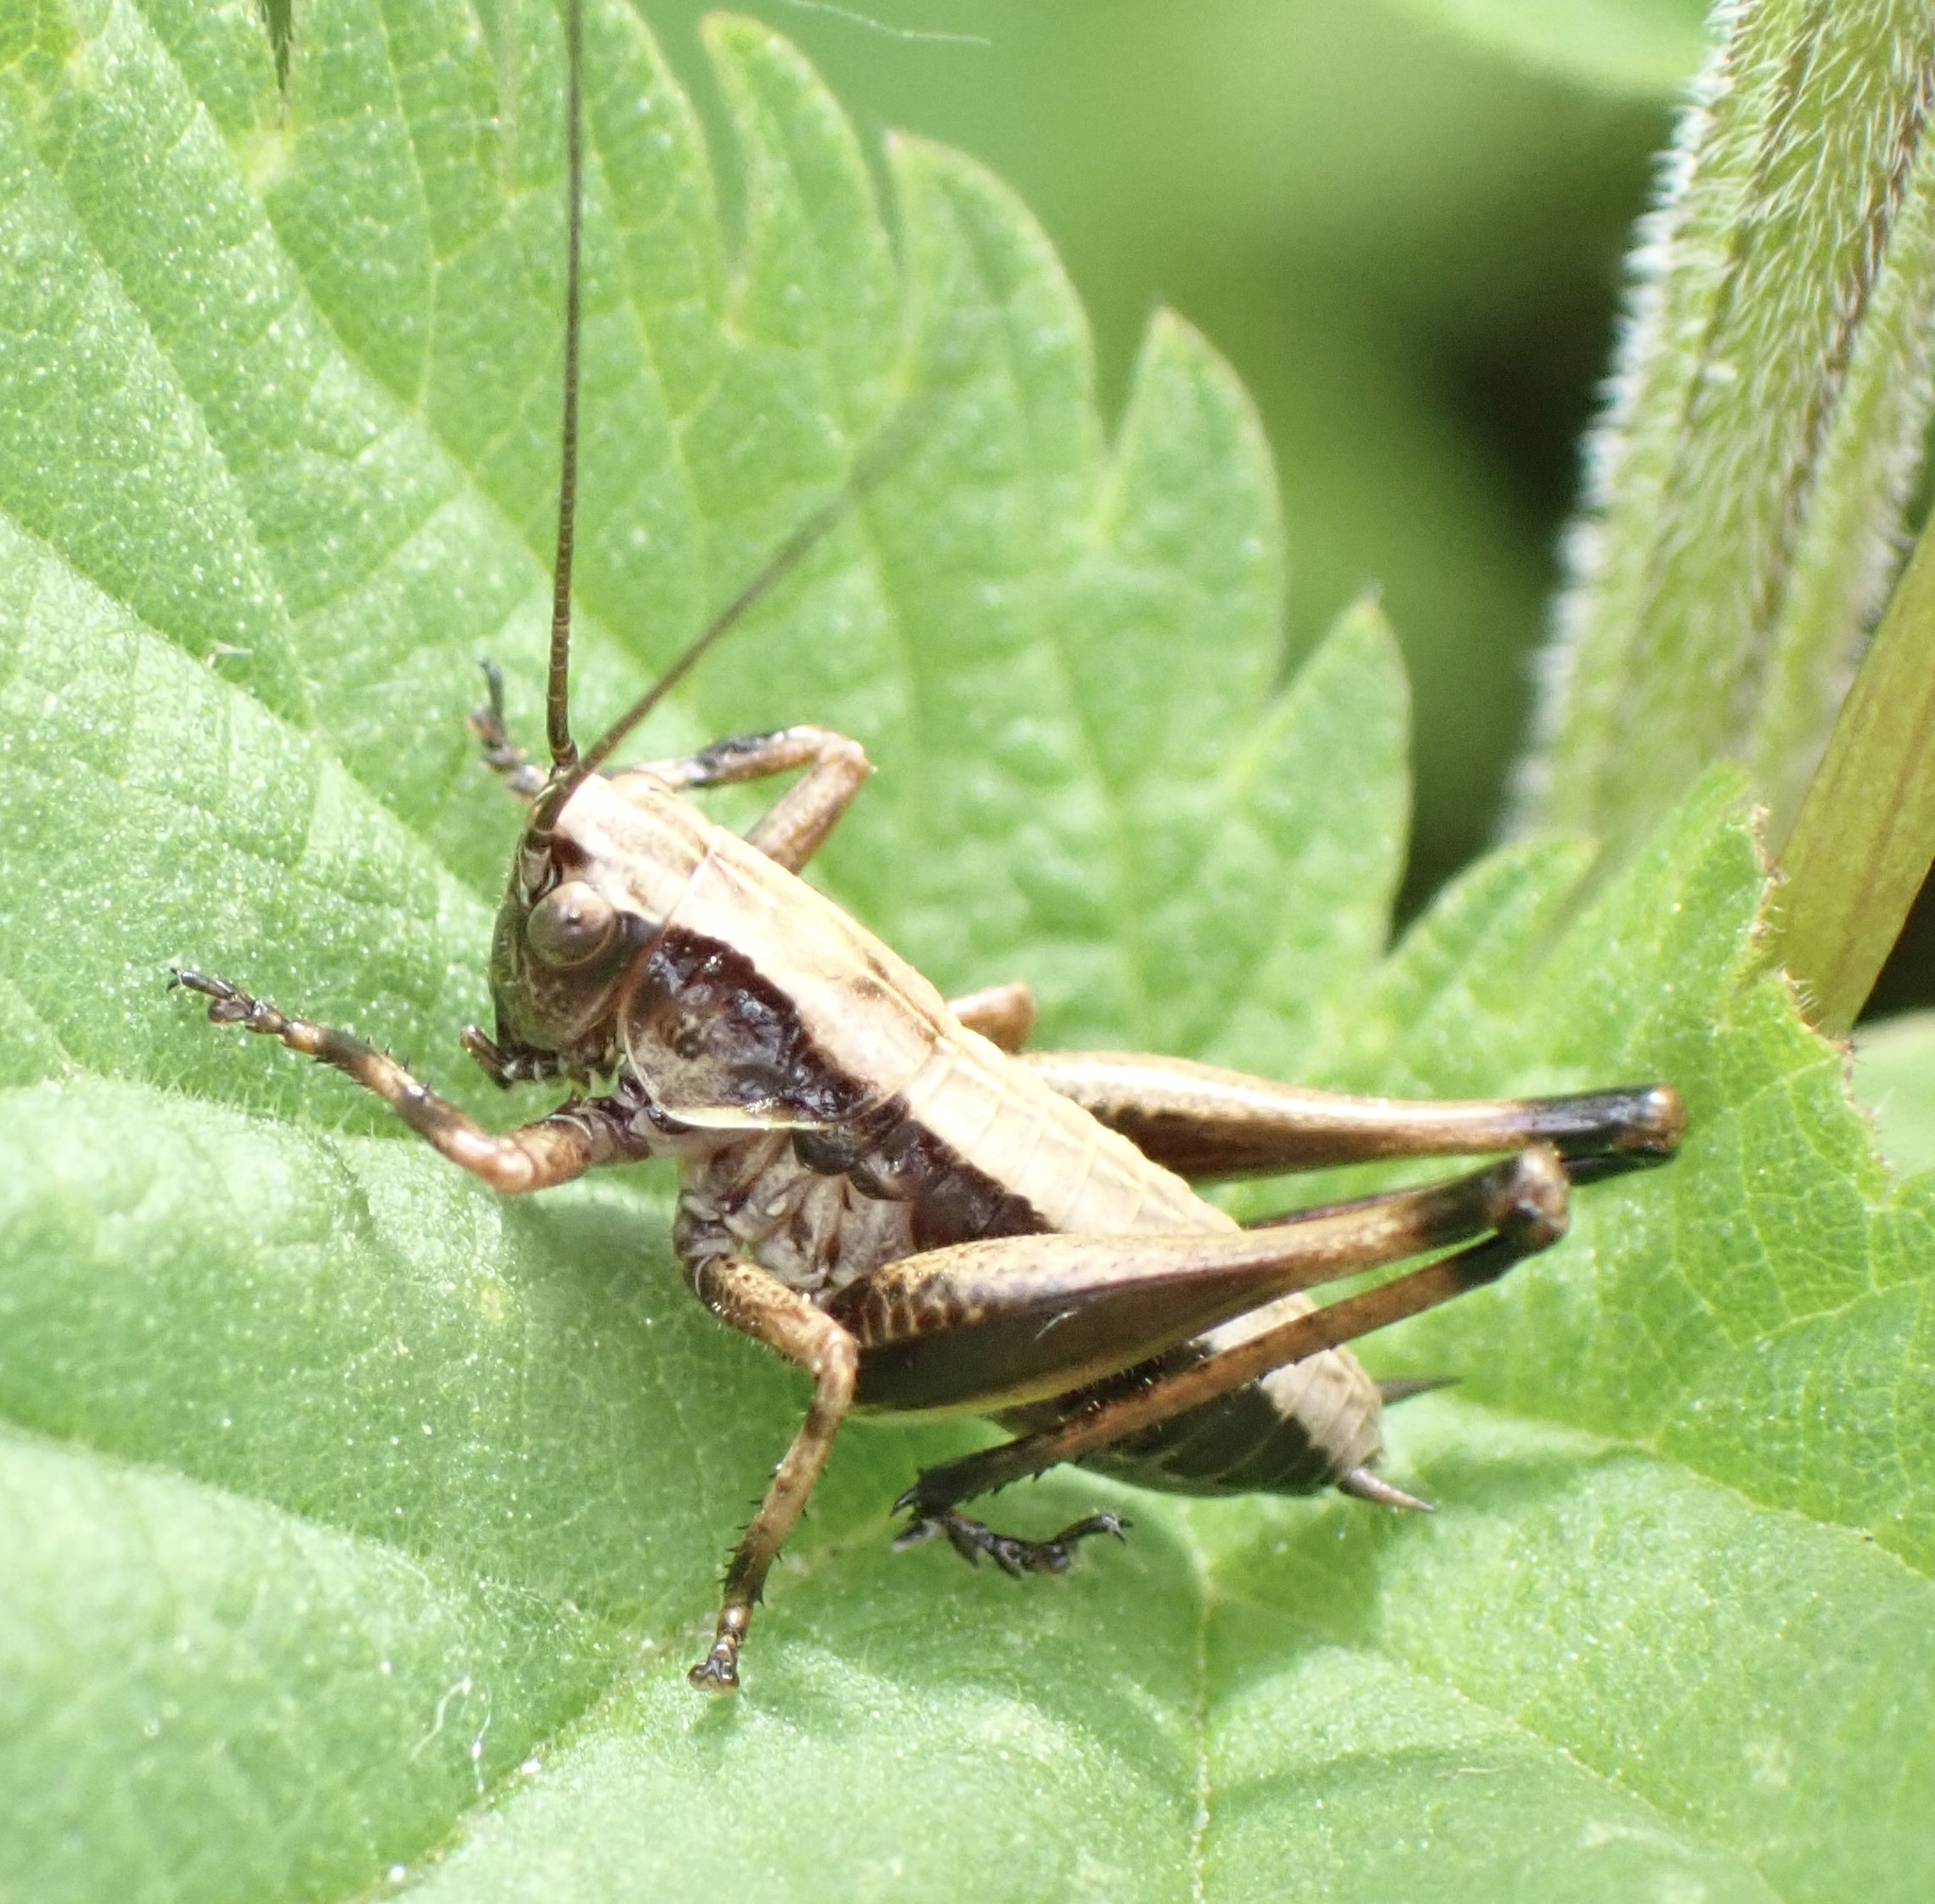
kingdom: Animalia
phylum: Arthropoda
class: Insecta
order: Orthoptera
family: Tettigoniidae
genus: Pholidoptera
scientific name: Pholidoptera griseoaptera
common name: Dark bush-cricket
